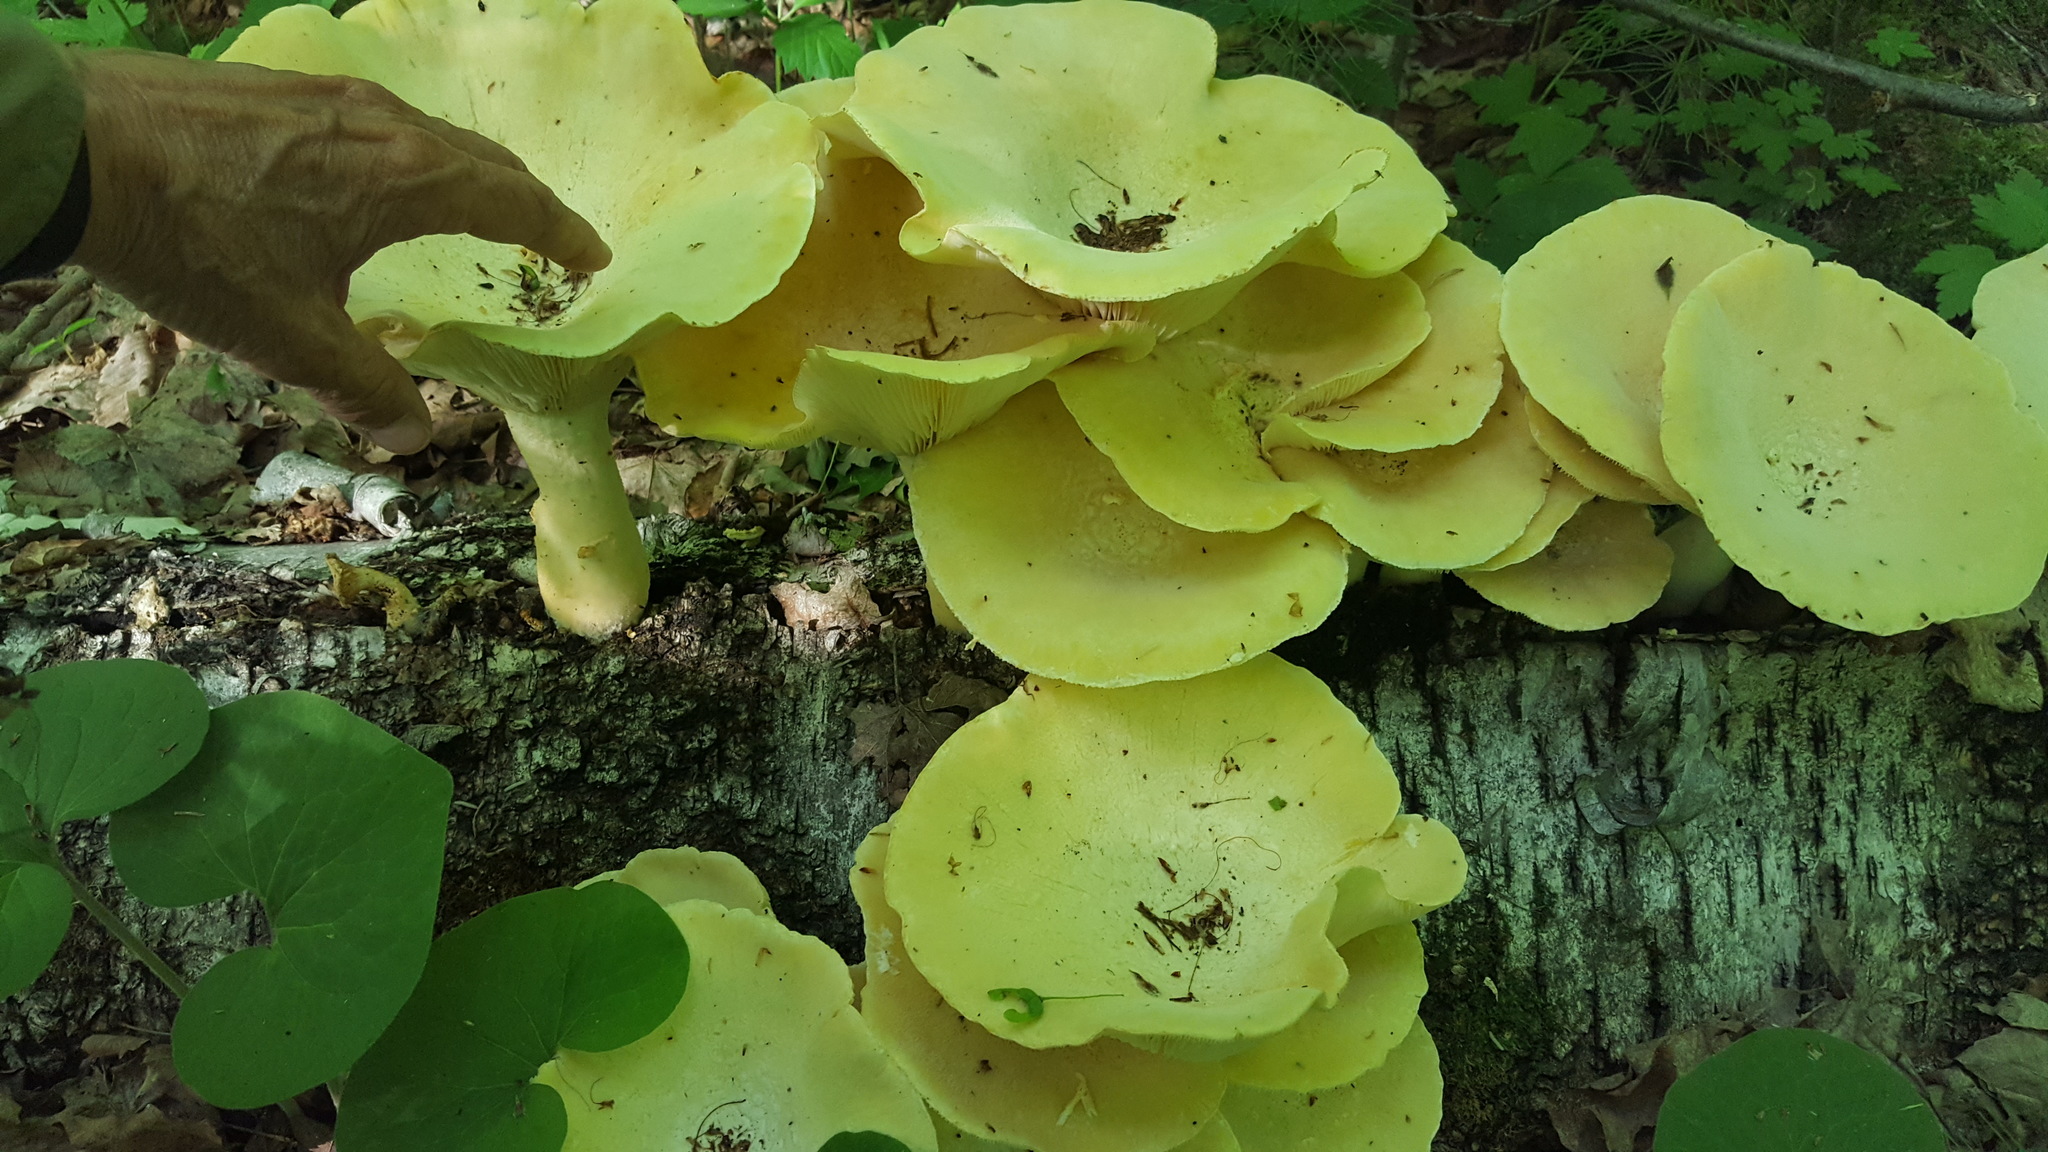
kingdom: Fungi
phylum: Basidiomycota
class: Agaricomycetes
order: Polyporales
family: Polyporaceae
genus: Lentinus
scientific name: Lentinus levis
